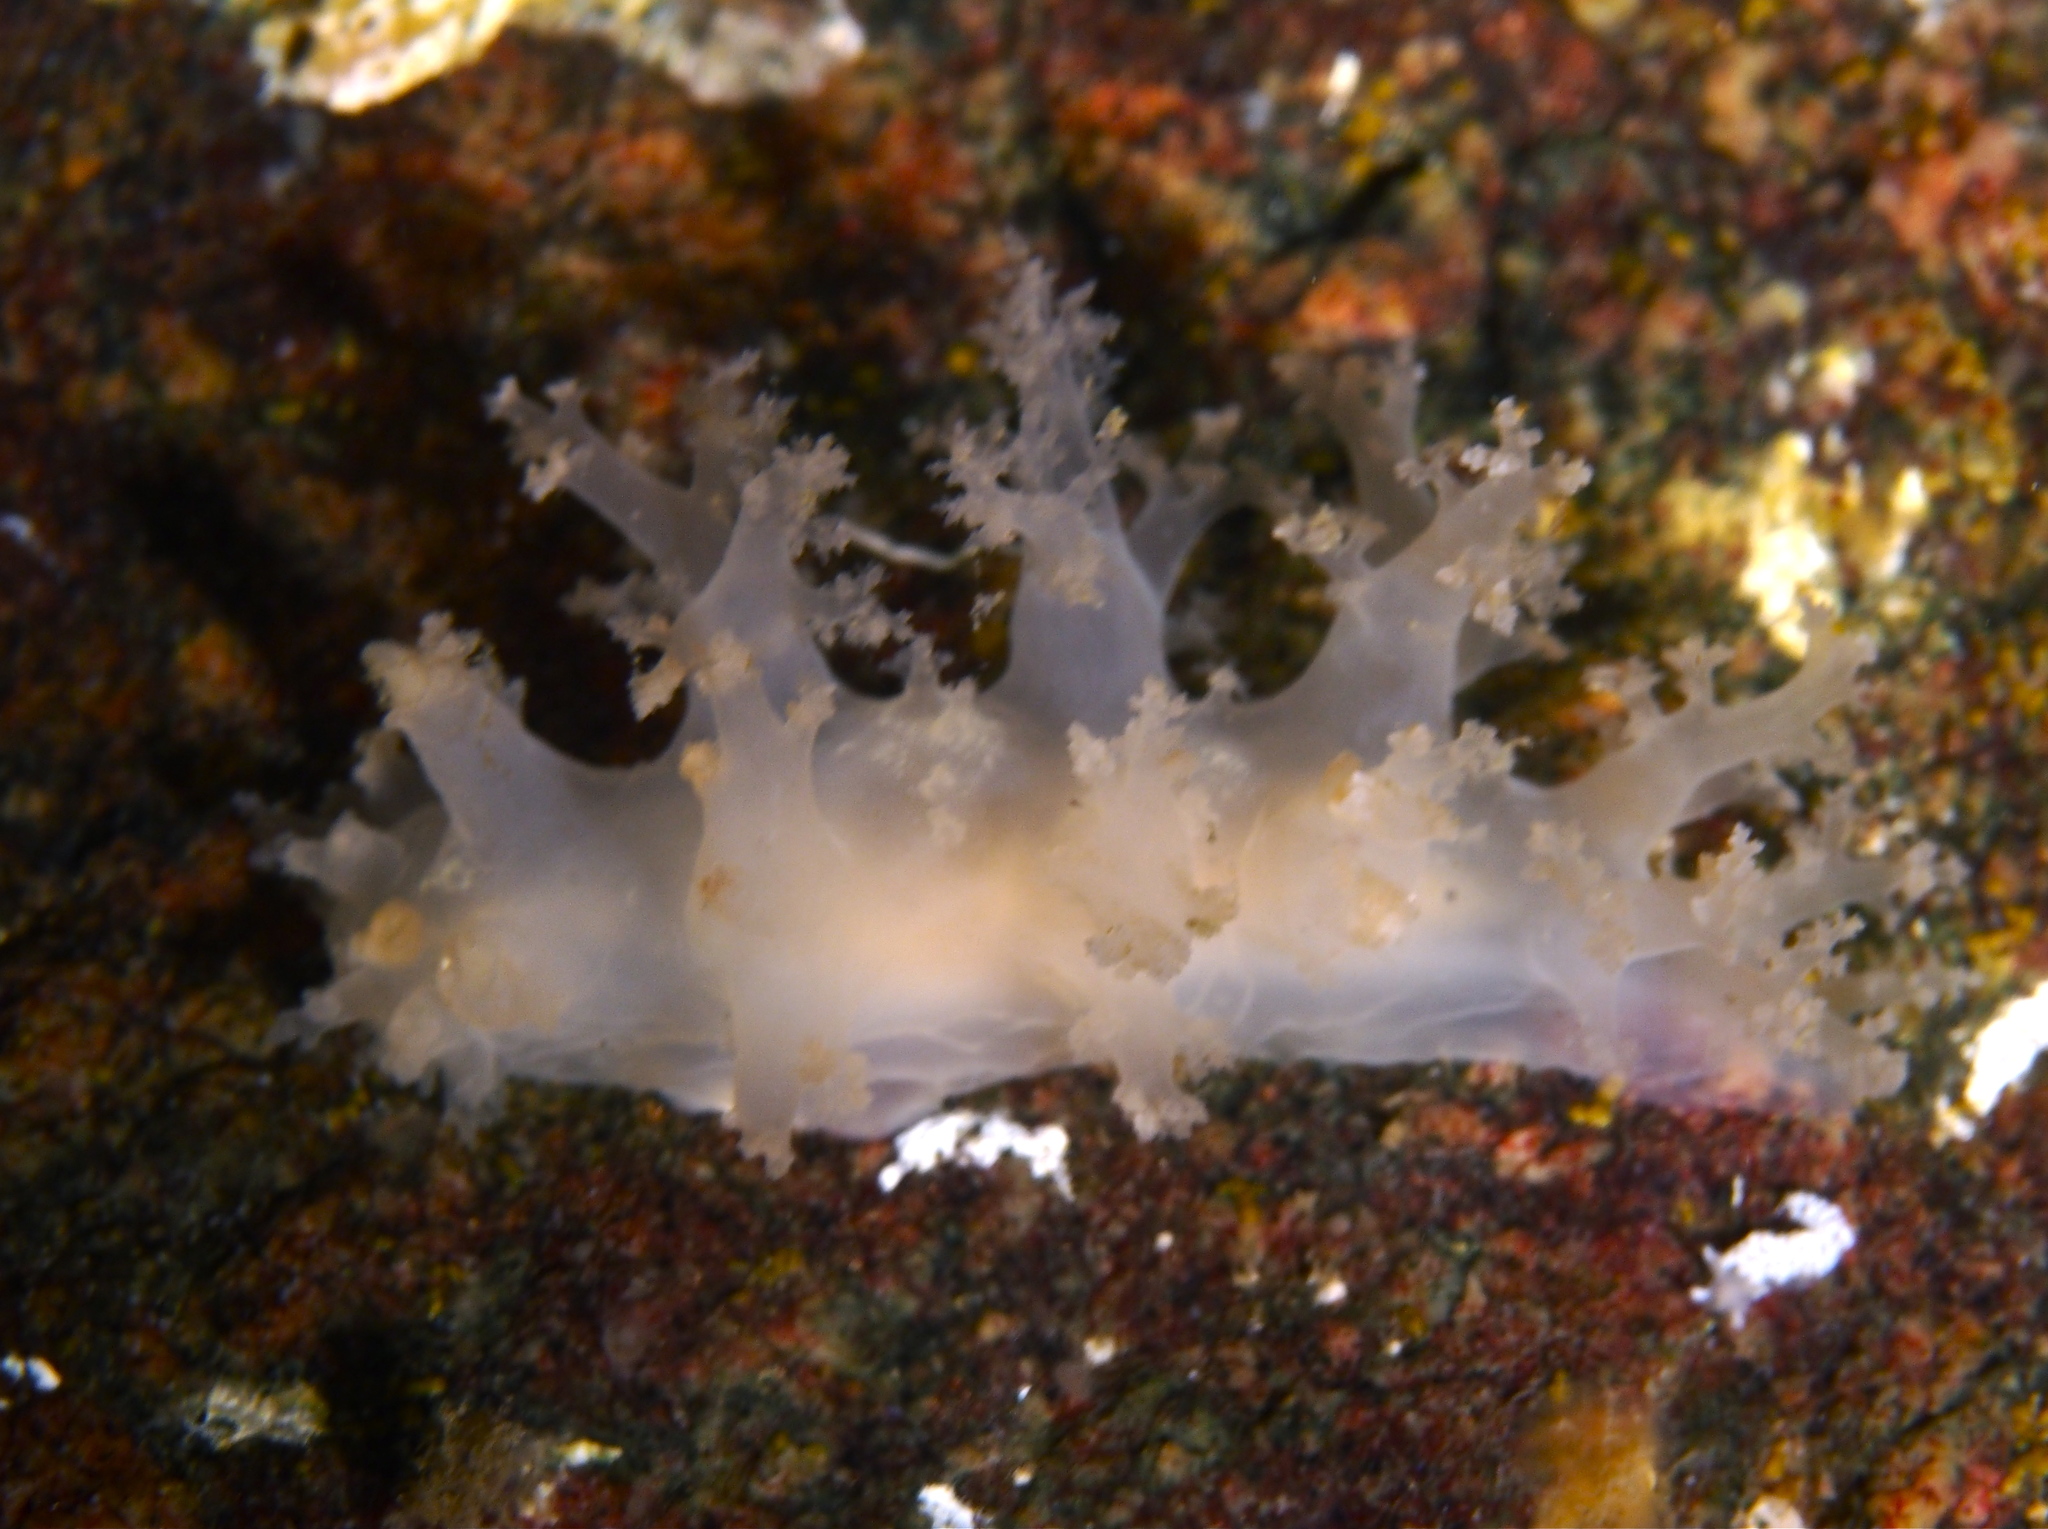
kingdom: Animalia
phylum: Mollusca
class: Gastropoda
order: Nudibranchia
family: Dendronotidae
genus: Dendronotus
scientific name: Dendronotus lacteus
